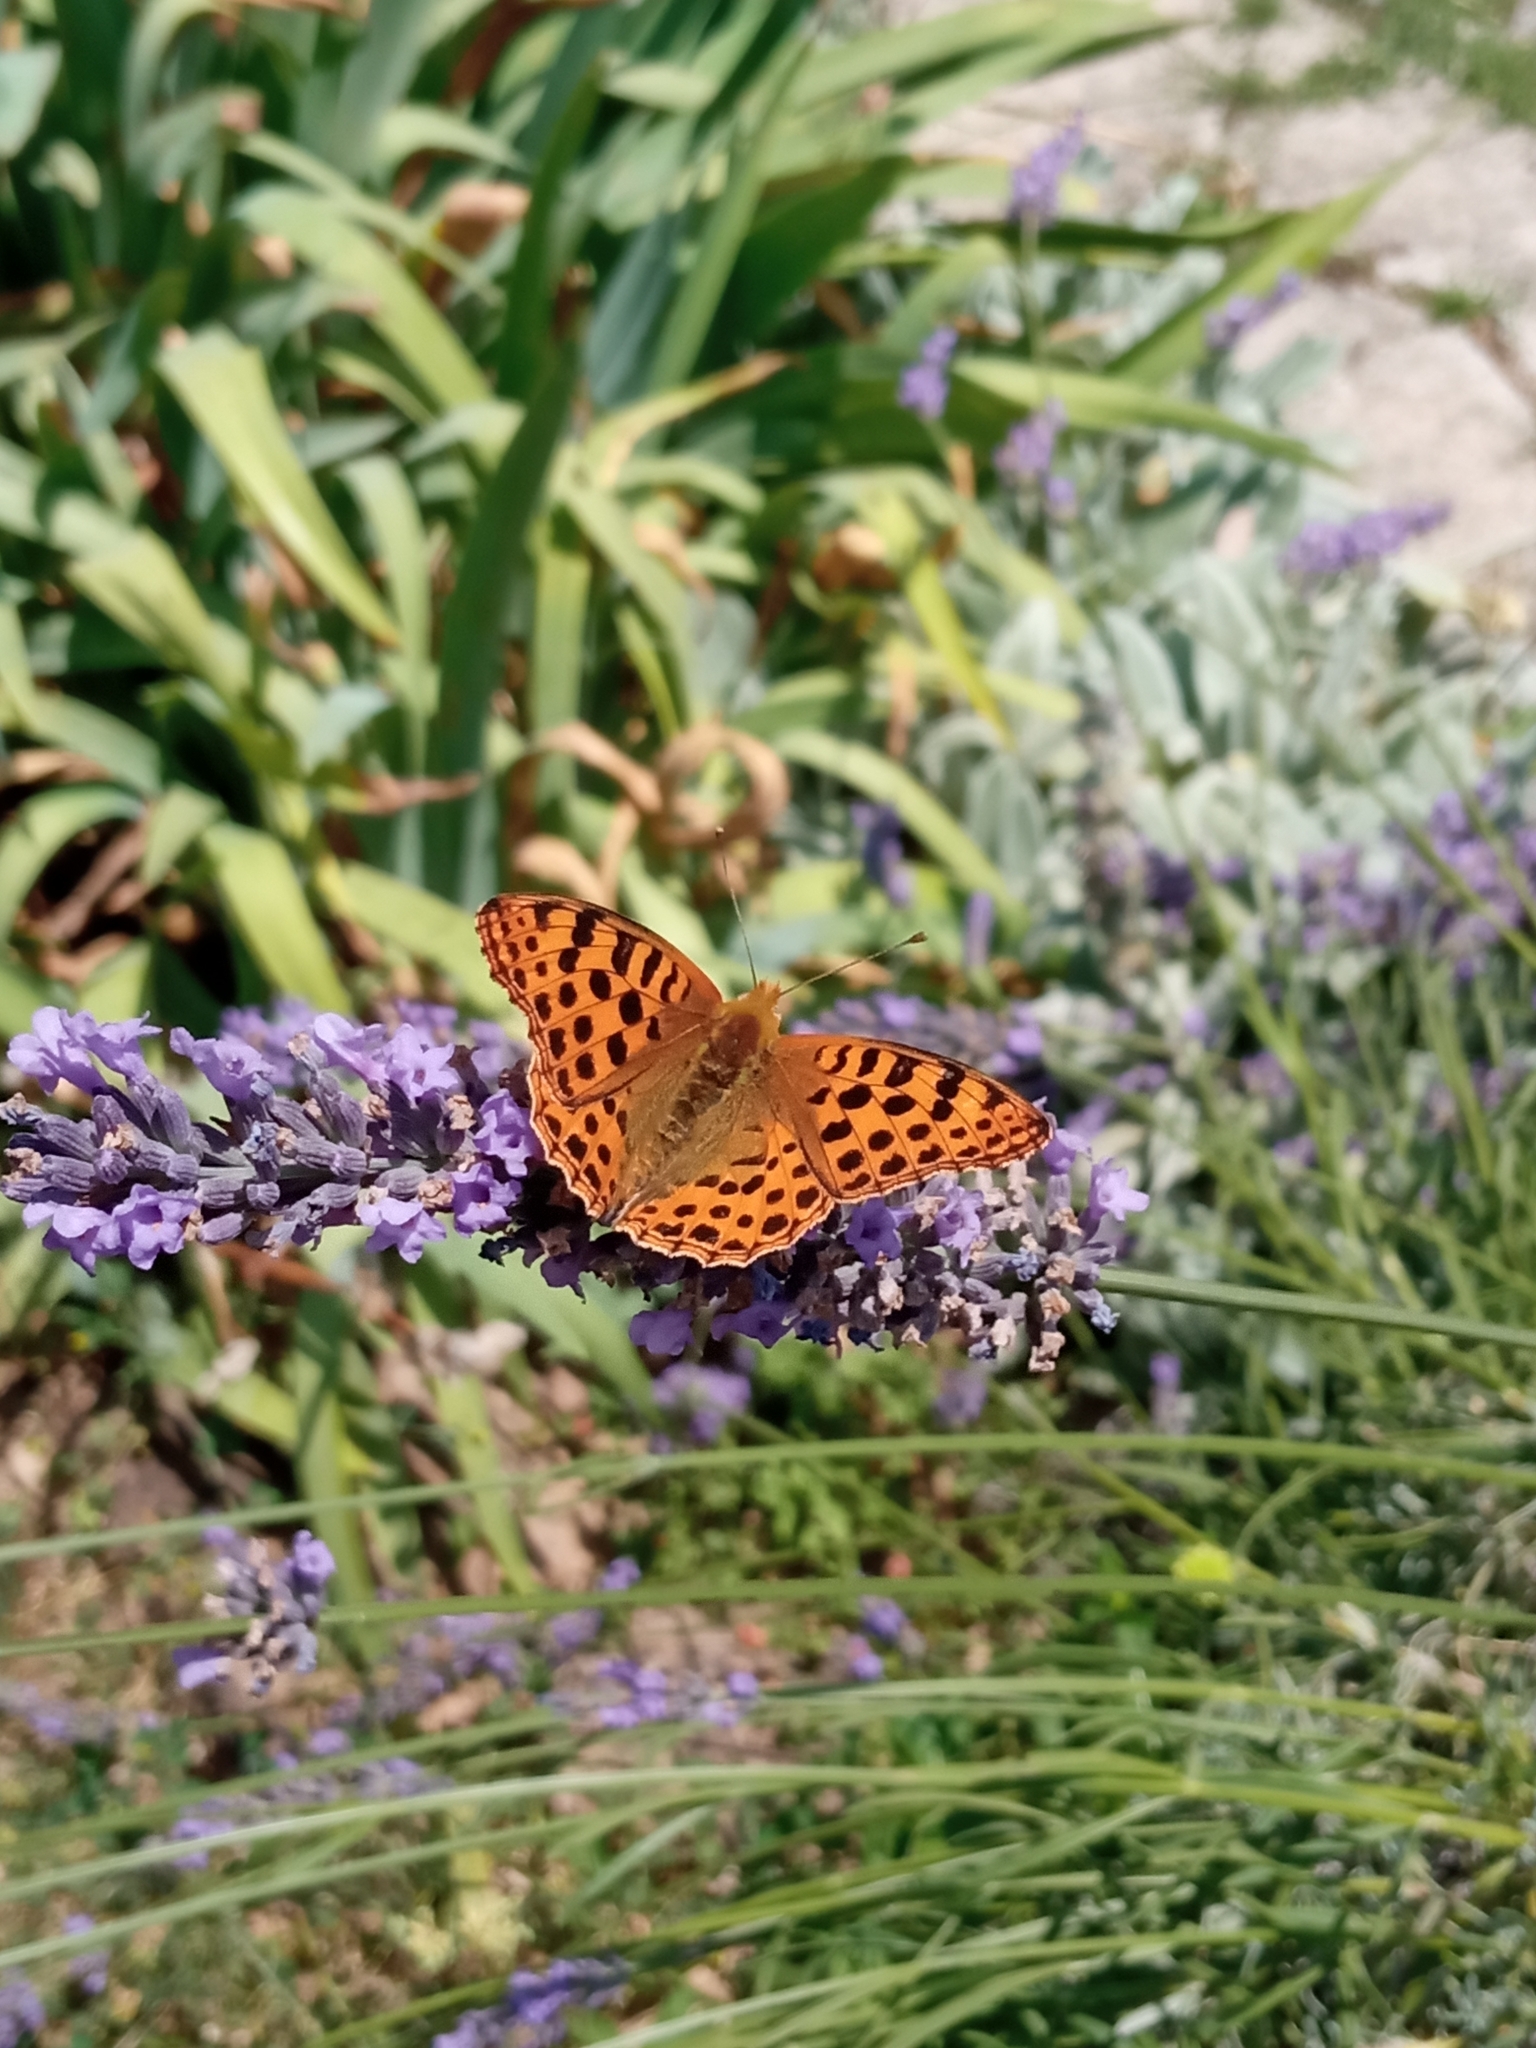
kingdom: Animalia
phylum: Arthropoda
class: Insecta
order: Lepidoptera
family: Nymphalidae
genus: Issoria
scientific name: Issoria lathonia
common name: Queen of spain fritillary
